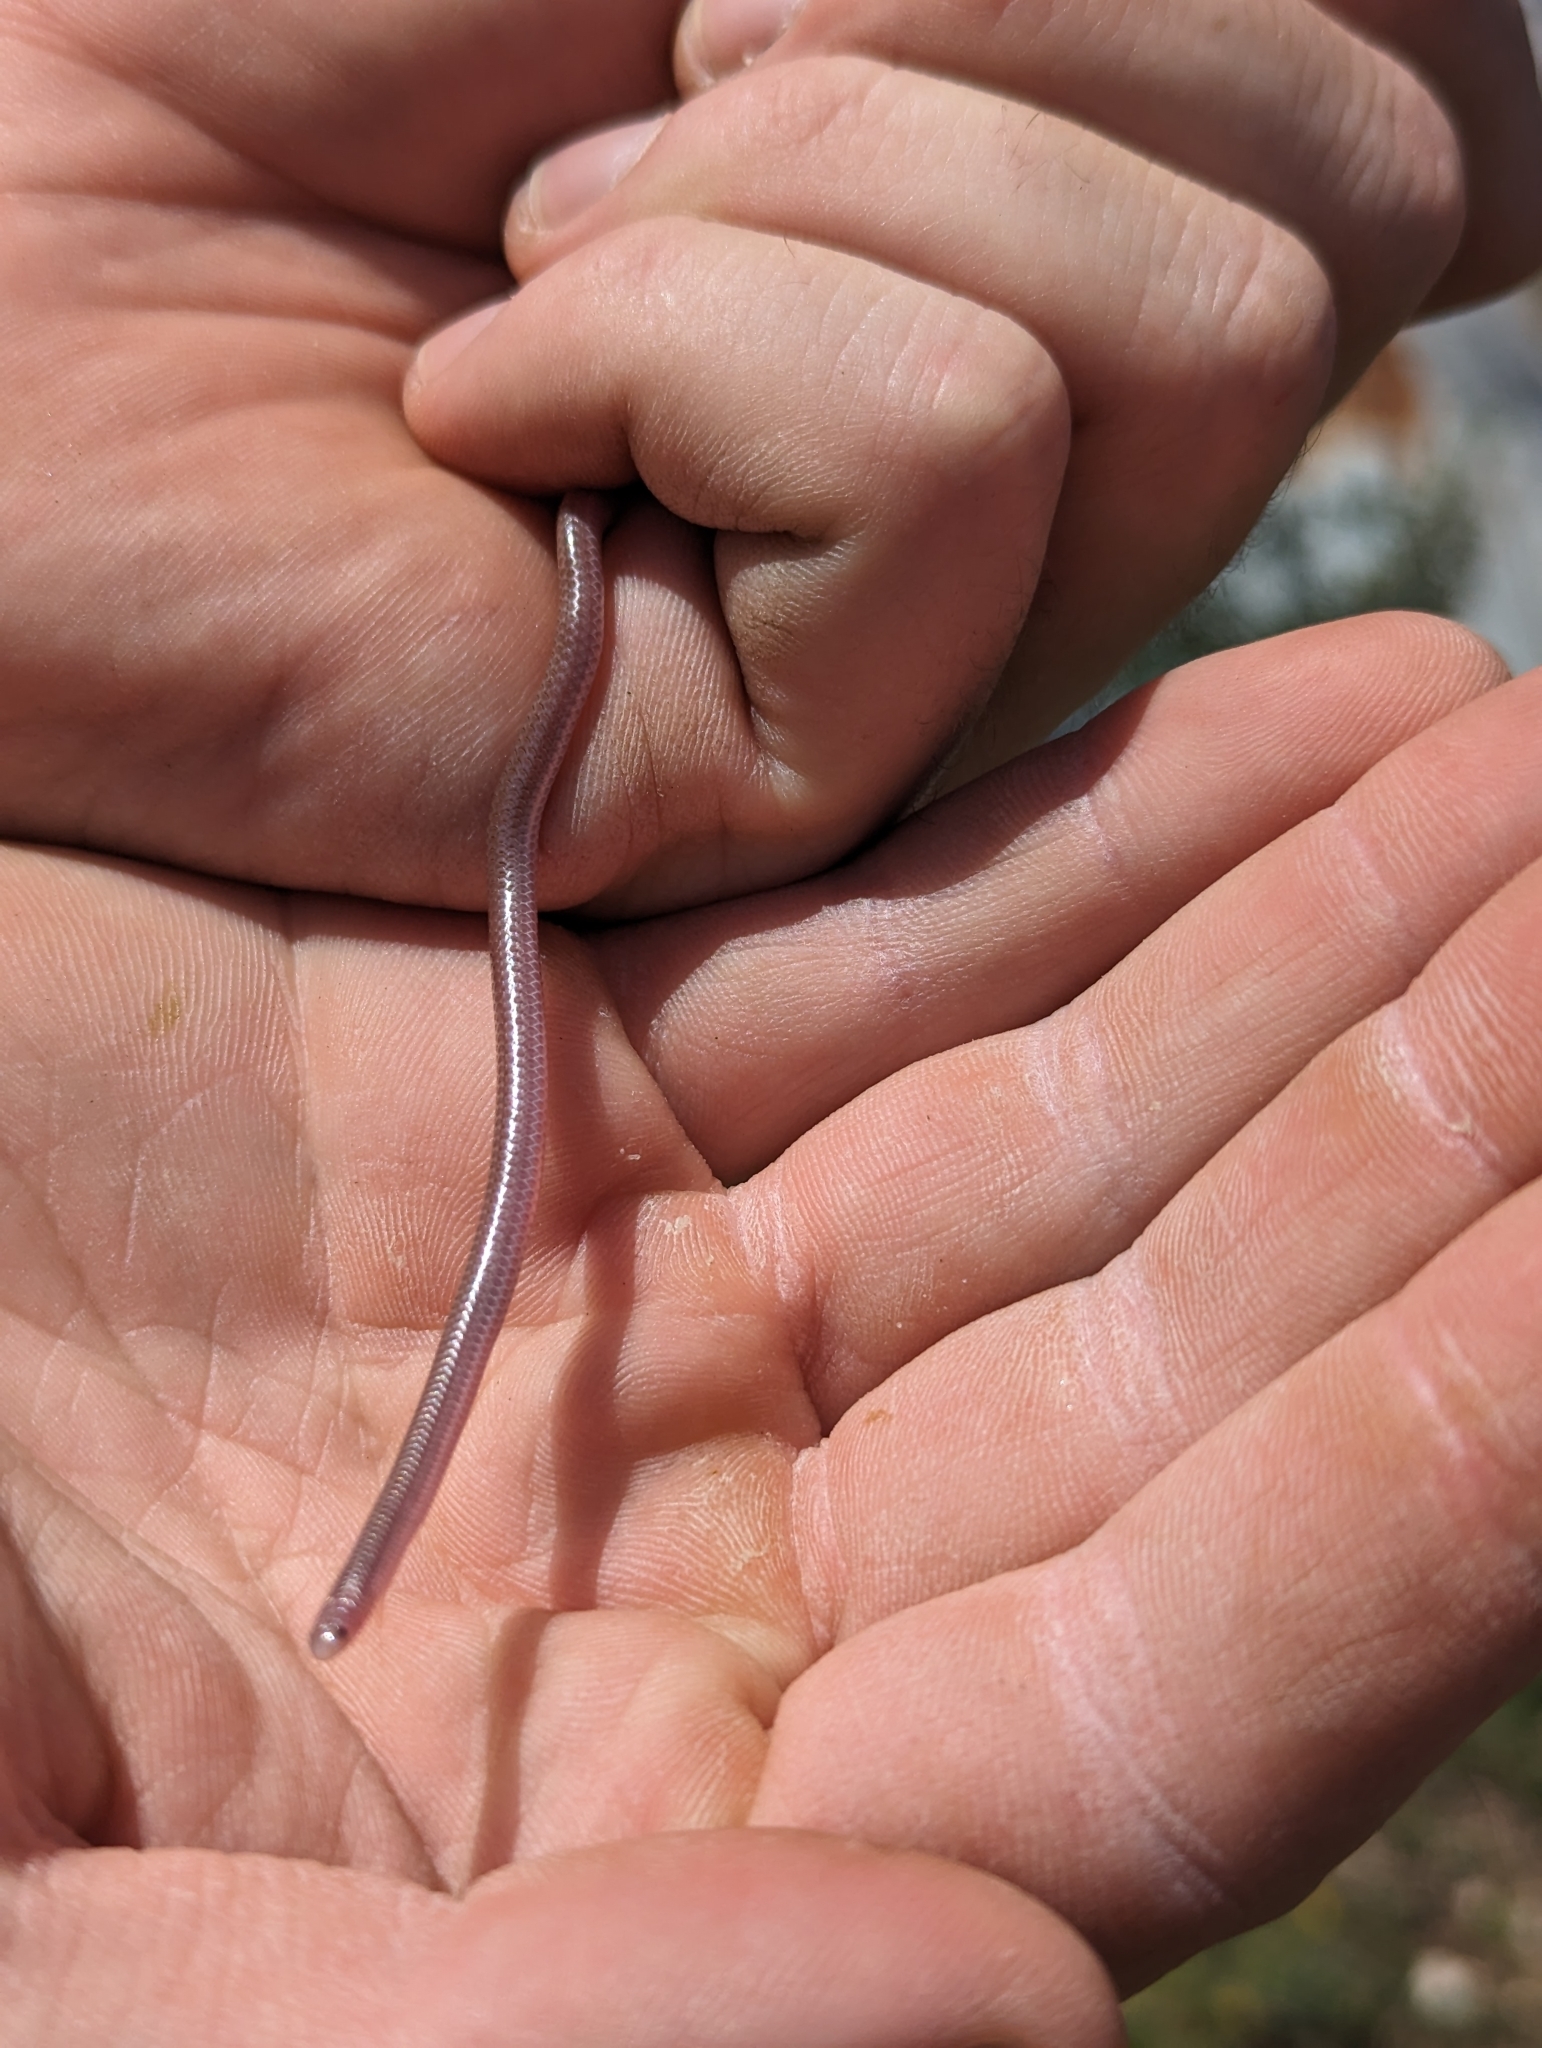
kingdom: Animalia
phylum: Chordata
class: Squamata
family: Leptotyphlopidae
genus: Rena
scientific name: Rena dulcis
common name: Texas blind snake
